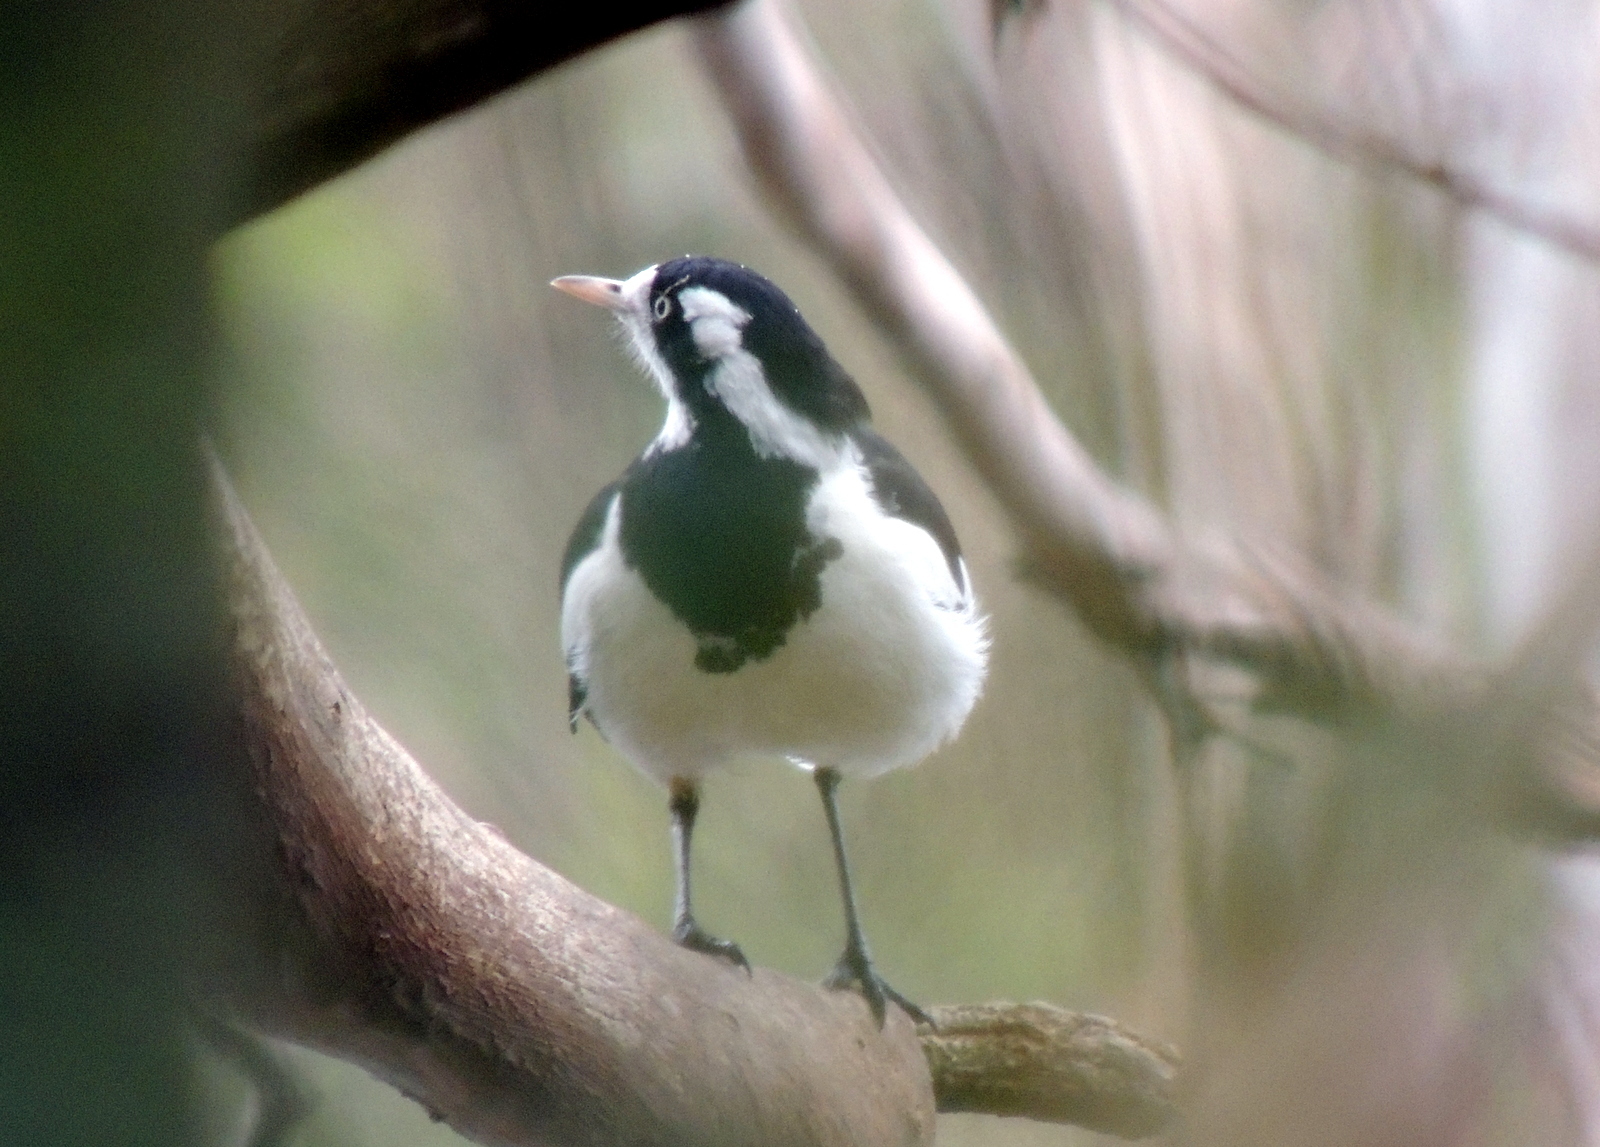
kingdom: Animalia
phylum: Chordata
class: Aves
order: Passeriformes
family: Monarchidae
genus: Grallina
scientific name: Grallina cyanoleuca
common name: Magpie-lark
